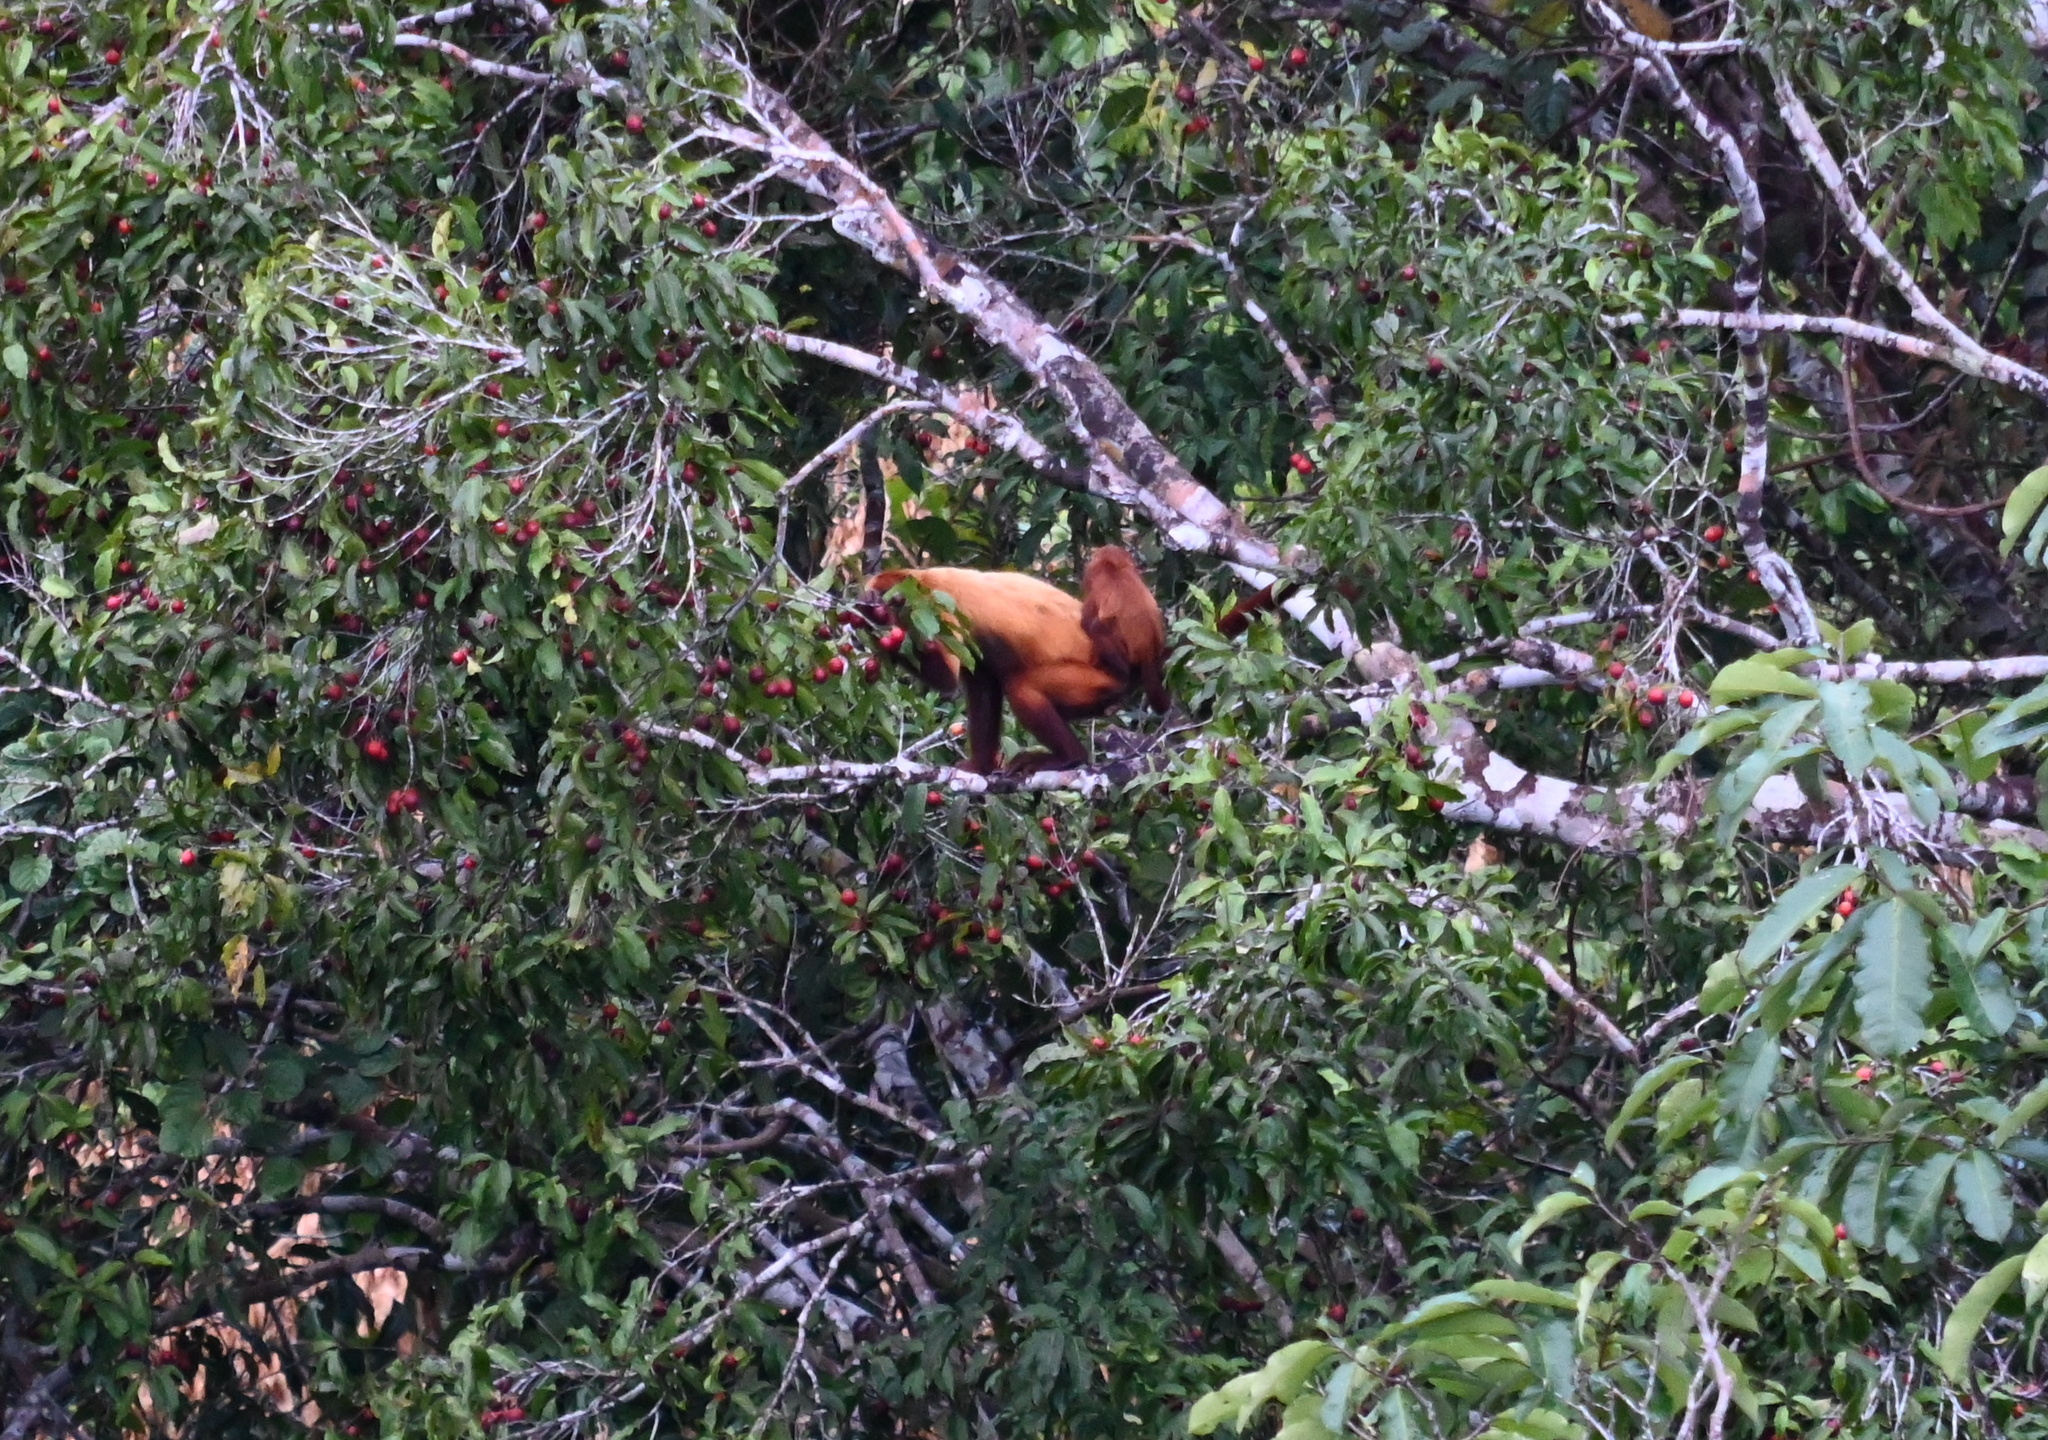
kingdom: Animalia
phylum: Chordata
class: Mammalia
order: Primates
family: Atelidae
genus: Alouatta
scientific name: Alouatta macconnelli
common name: Guyanan red howler
